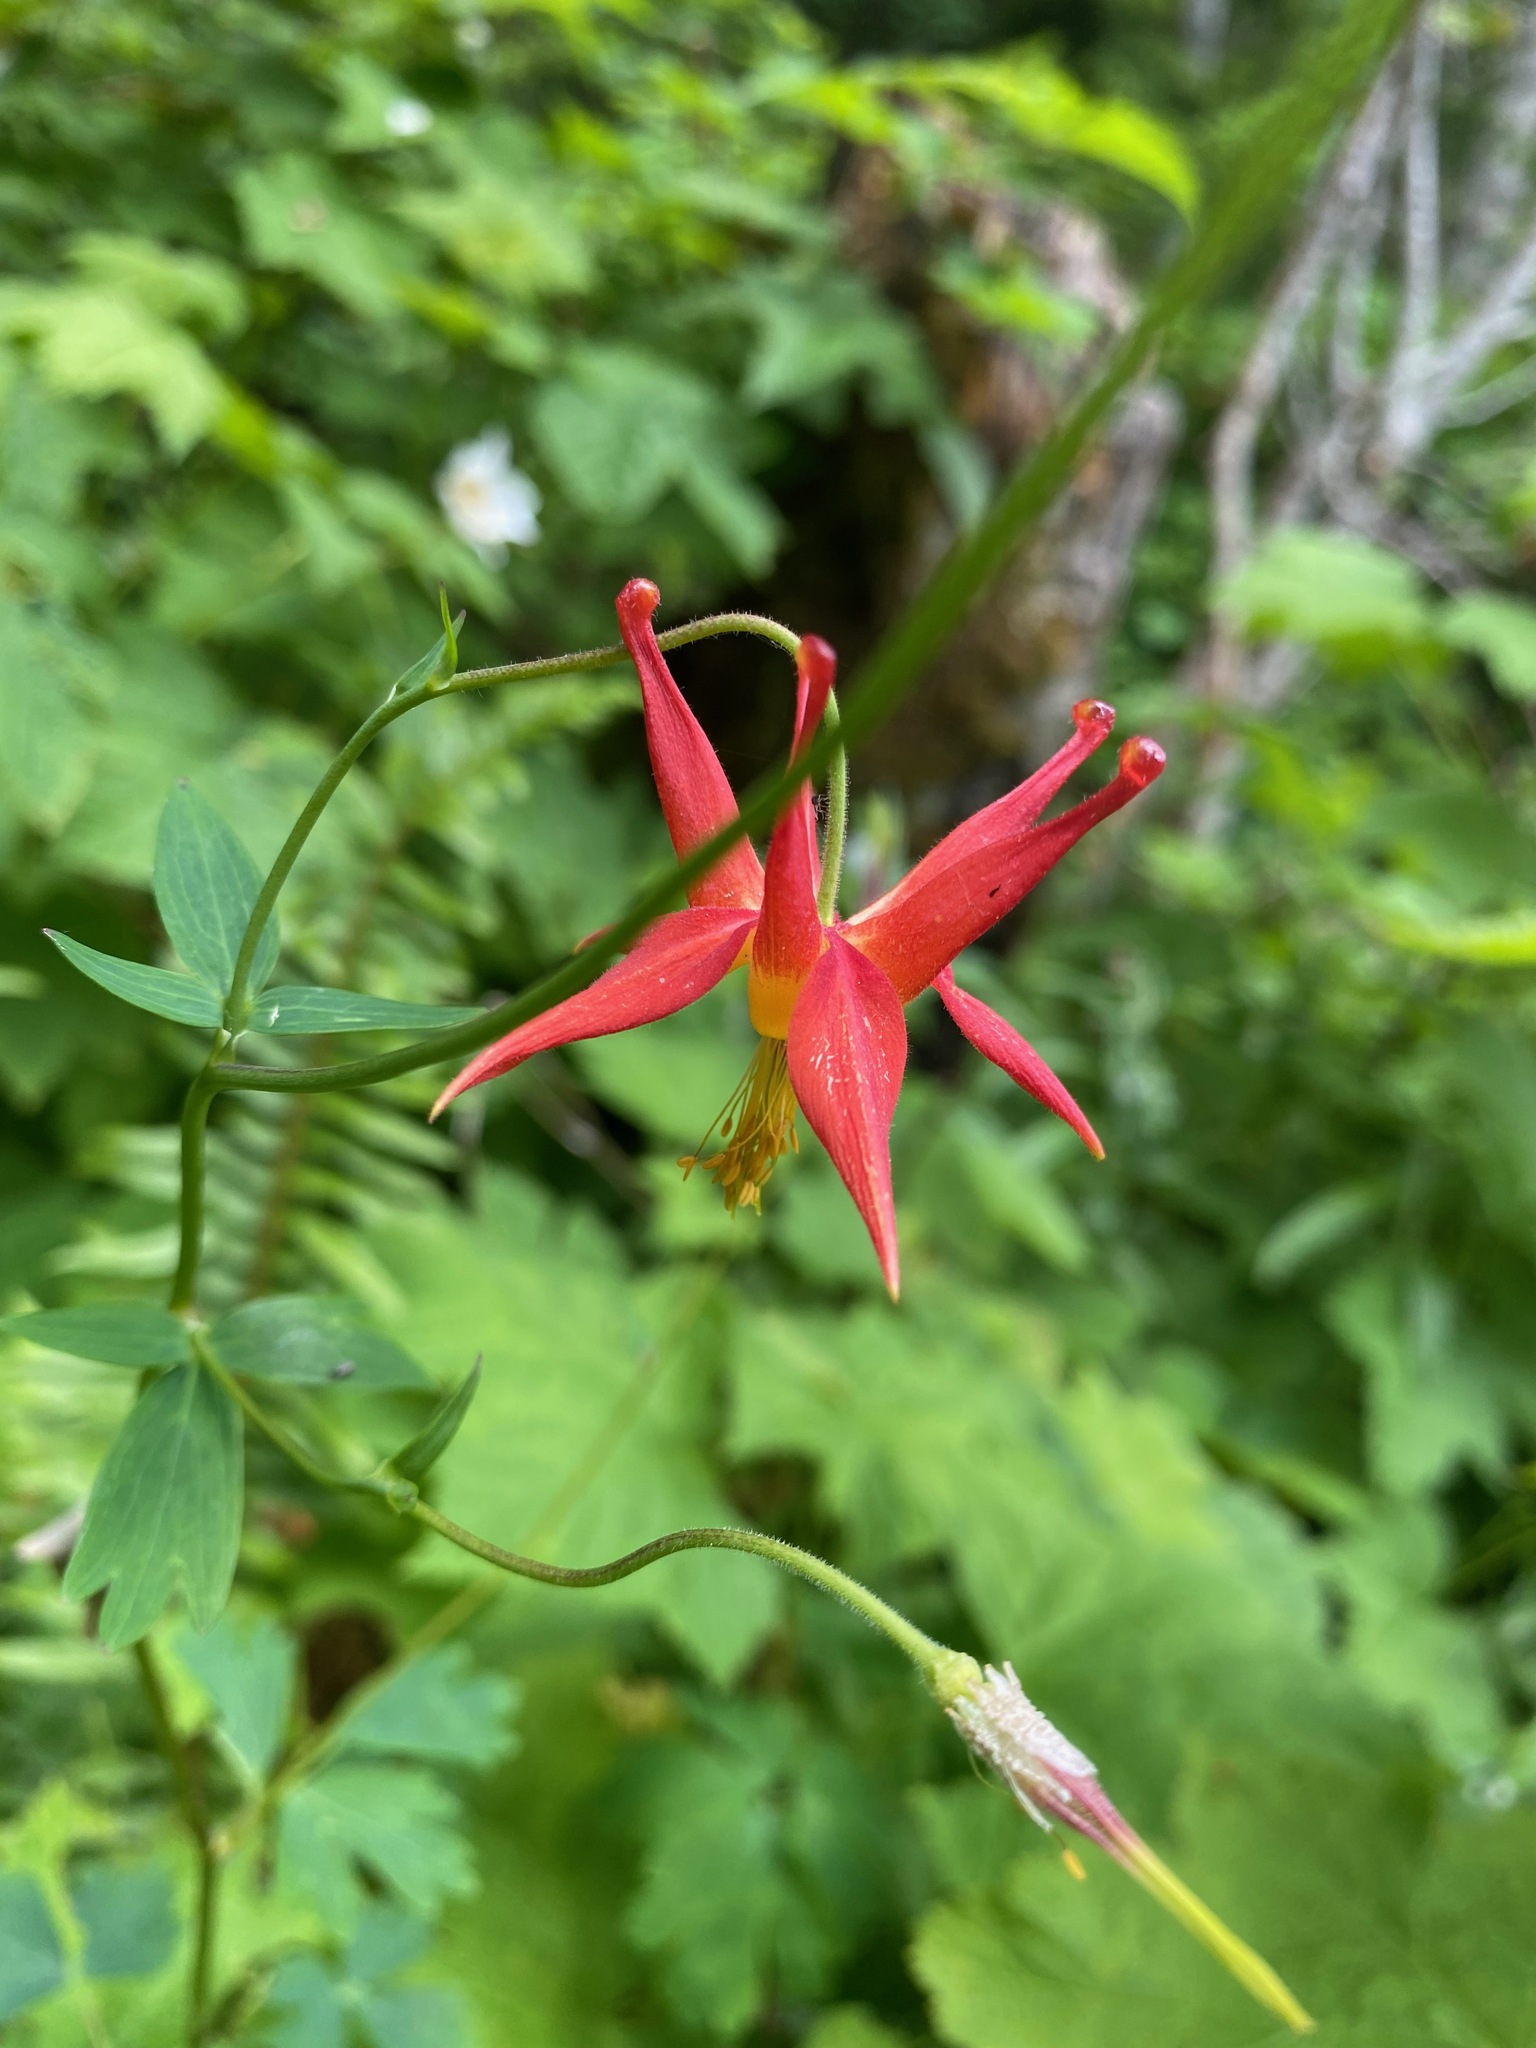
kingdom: Plantae
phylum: Tracheophyta
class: Magnoliopsida
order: Ranunculales
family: Ranunculaceae
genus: Aquilegia
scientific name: Aquilegia formosa
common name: Sitka columbine
